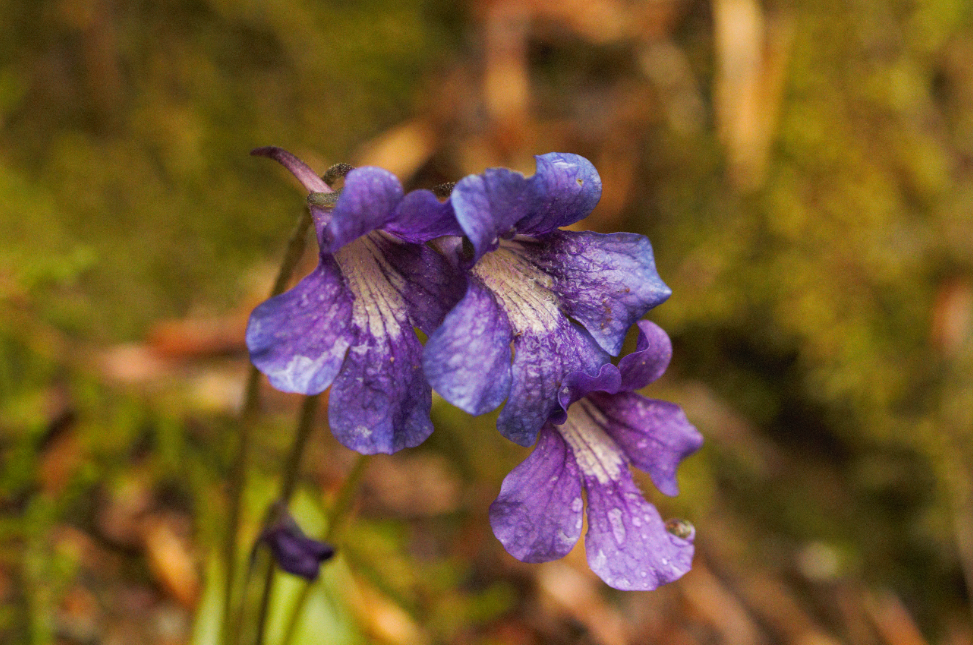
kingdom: Plantae
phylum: Tracheophyta
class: Magnoliopsida
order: Lamiales
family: Lentibulariaceae
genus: Pinguicula
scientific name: Pinguicula grandiflora
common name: Large-flowered butterwort
